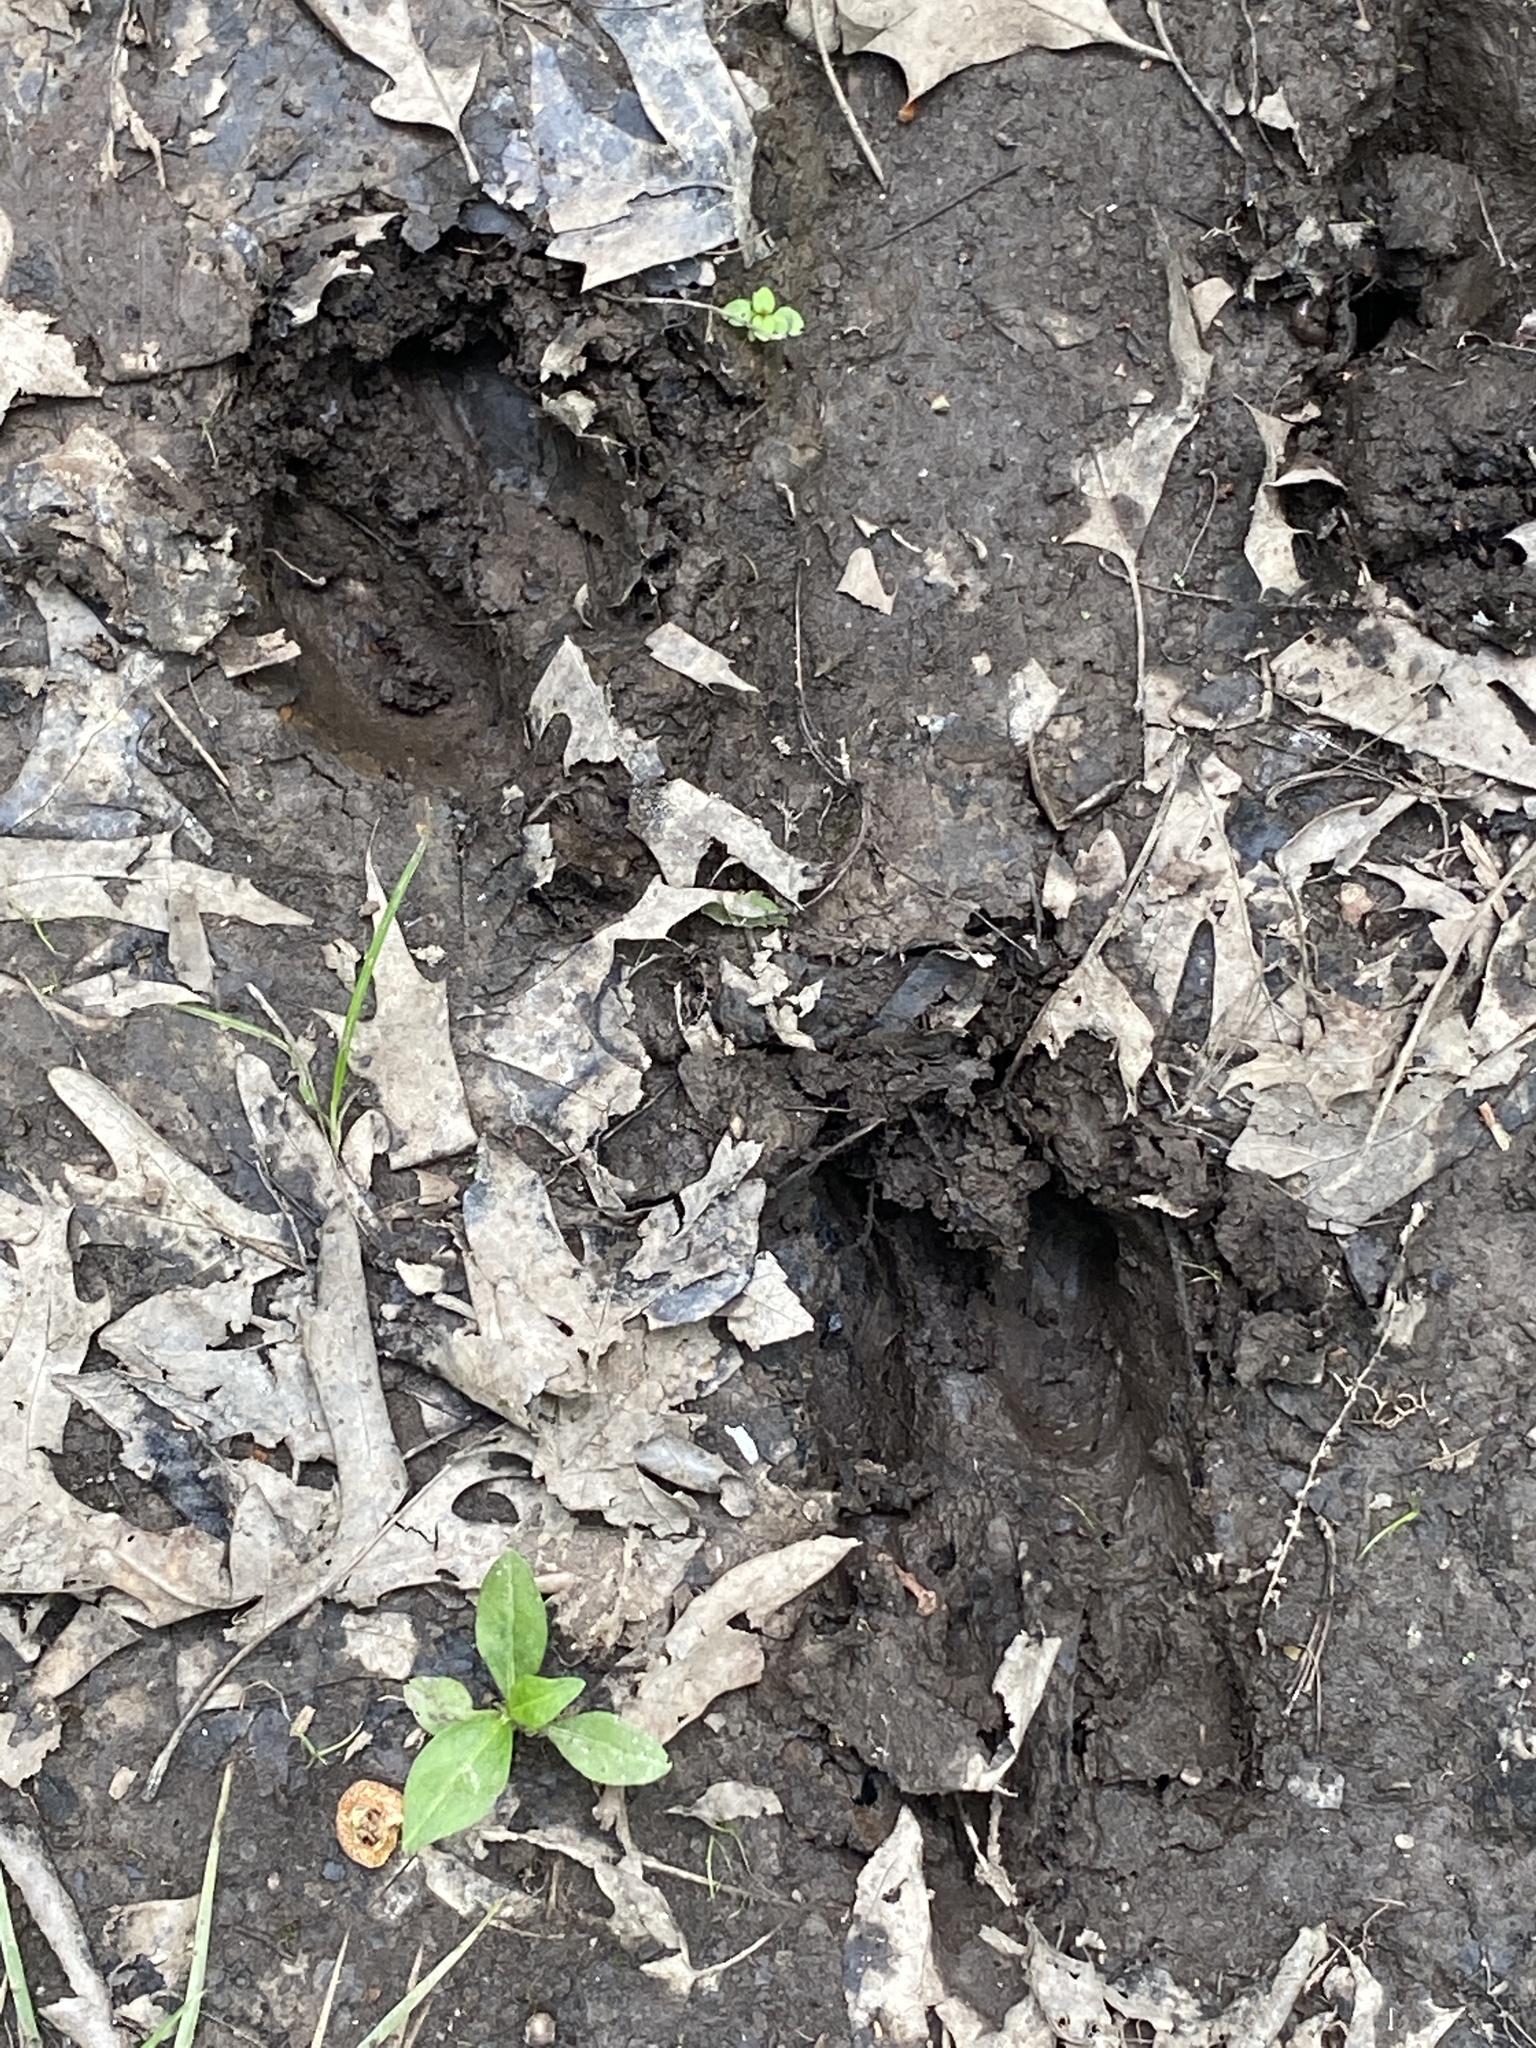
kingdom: Animalia
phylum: Chordata
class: Mammalia
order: Artiodactyla
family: Cervidae
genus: Odocoileus
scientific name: Odocoileus virginianus
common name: White-tailed deer
